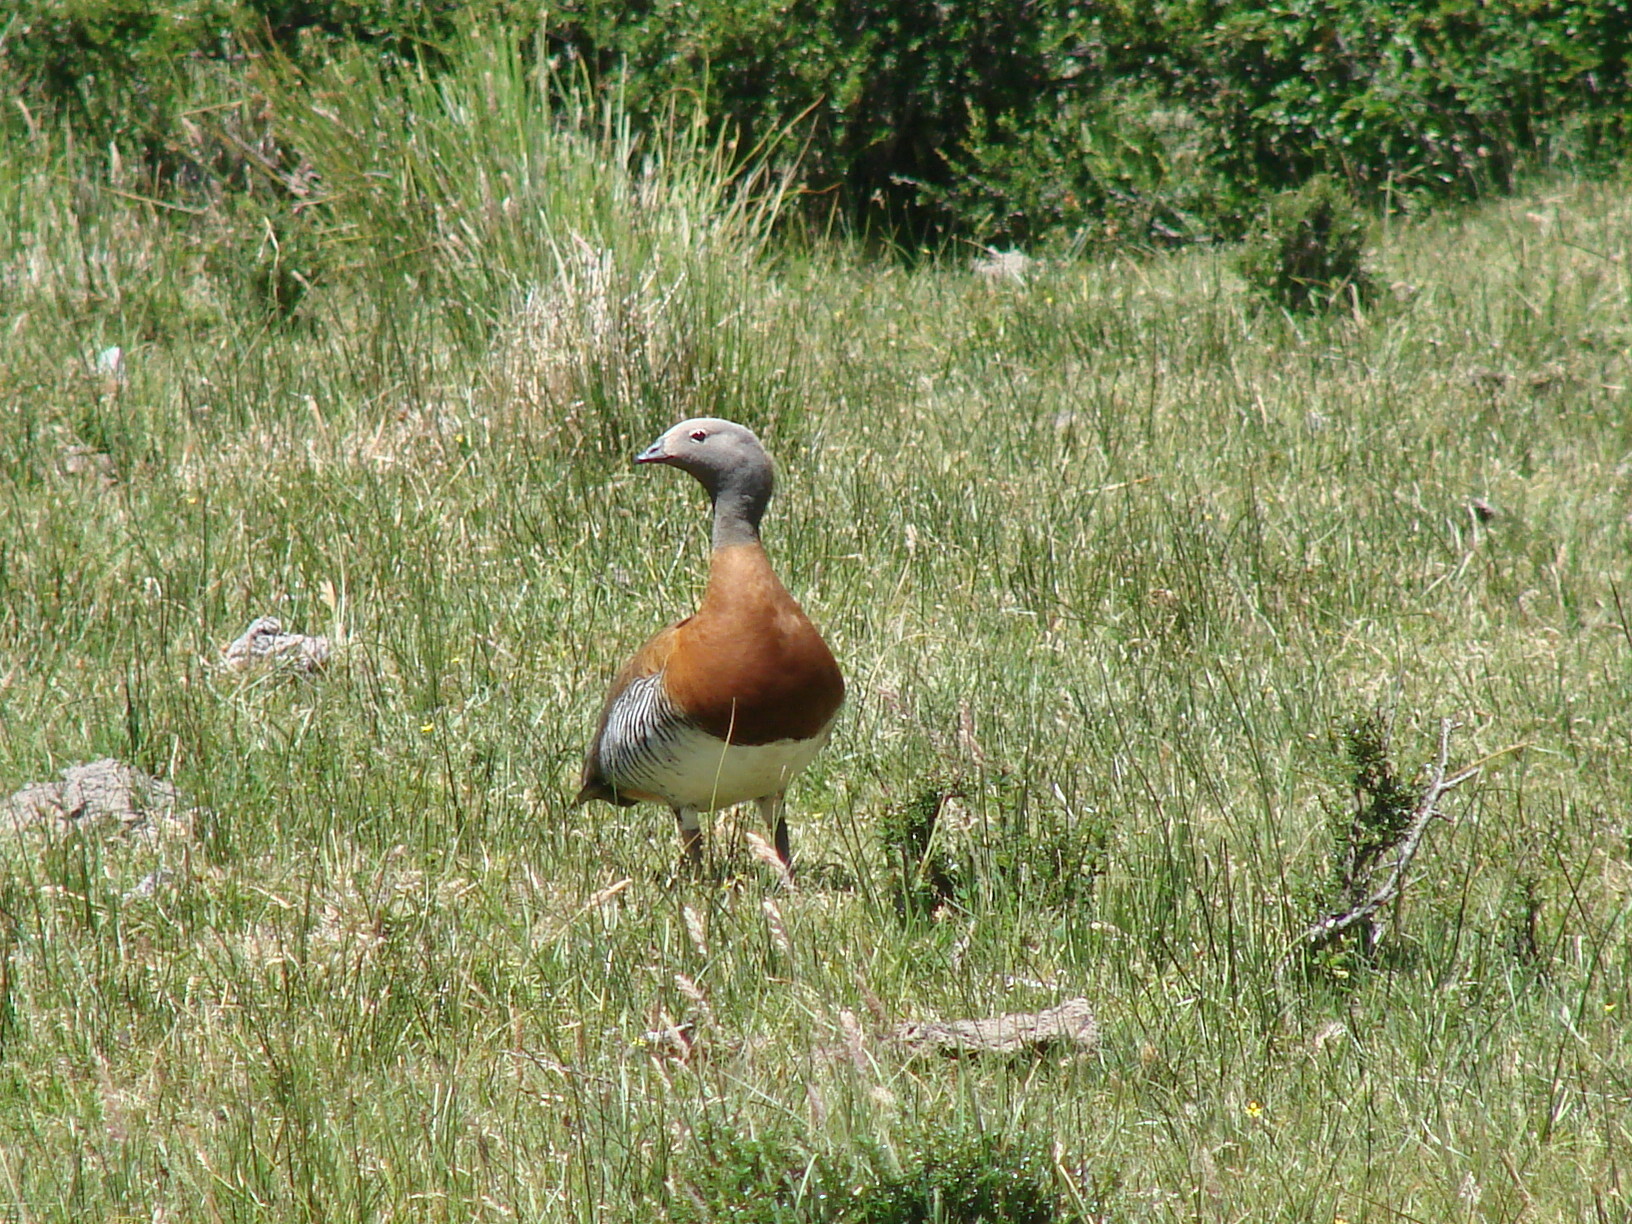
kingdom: Animalia
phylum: Chordata
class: Aves
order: Anseriformes
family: Anatidae
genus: Chloephaga
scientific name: Chloephaga poliocephala
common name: Ashy-headed goose
